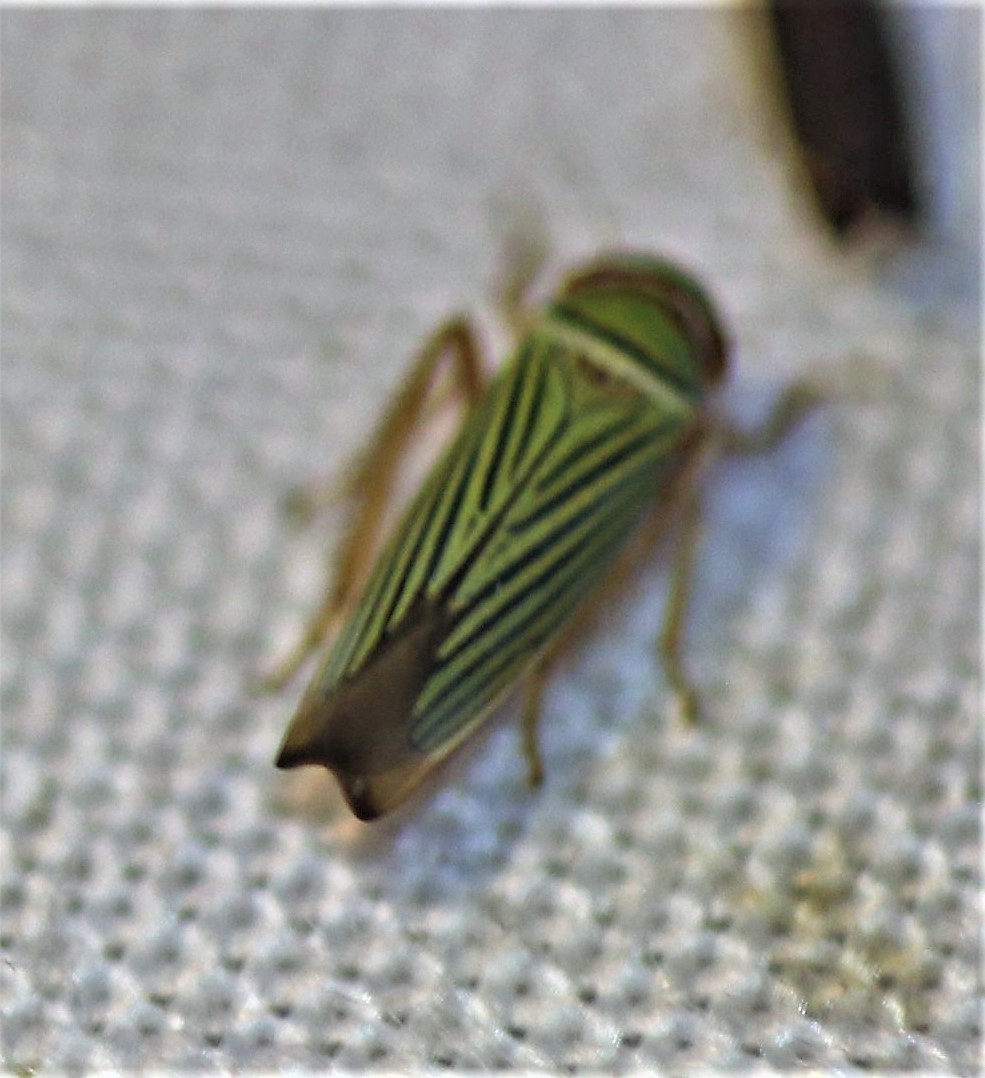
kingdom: Animalia
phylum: Arthropoda
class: Insecta
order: Hemiptera
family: Cicadellidae
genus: Tylozygus
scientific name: Tylozygus fuscolineellus
